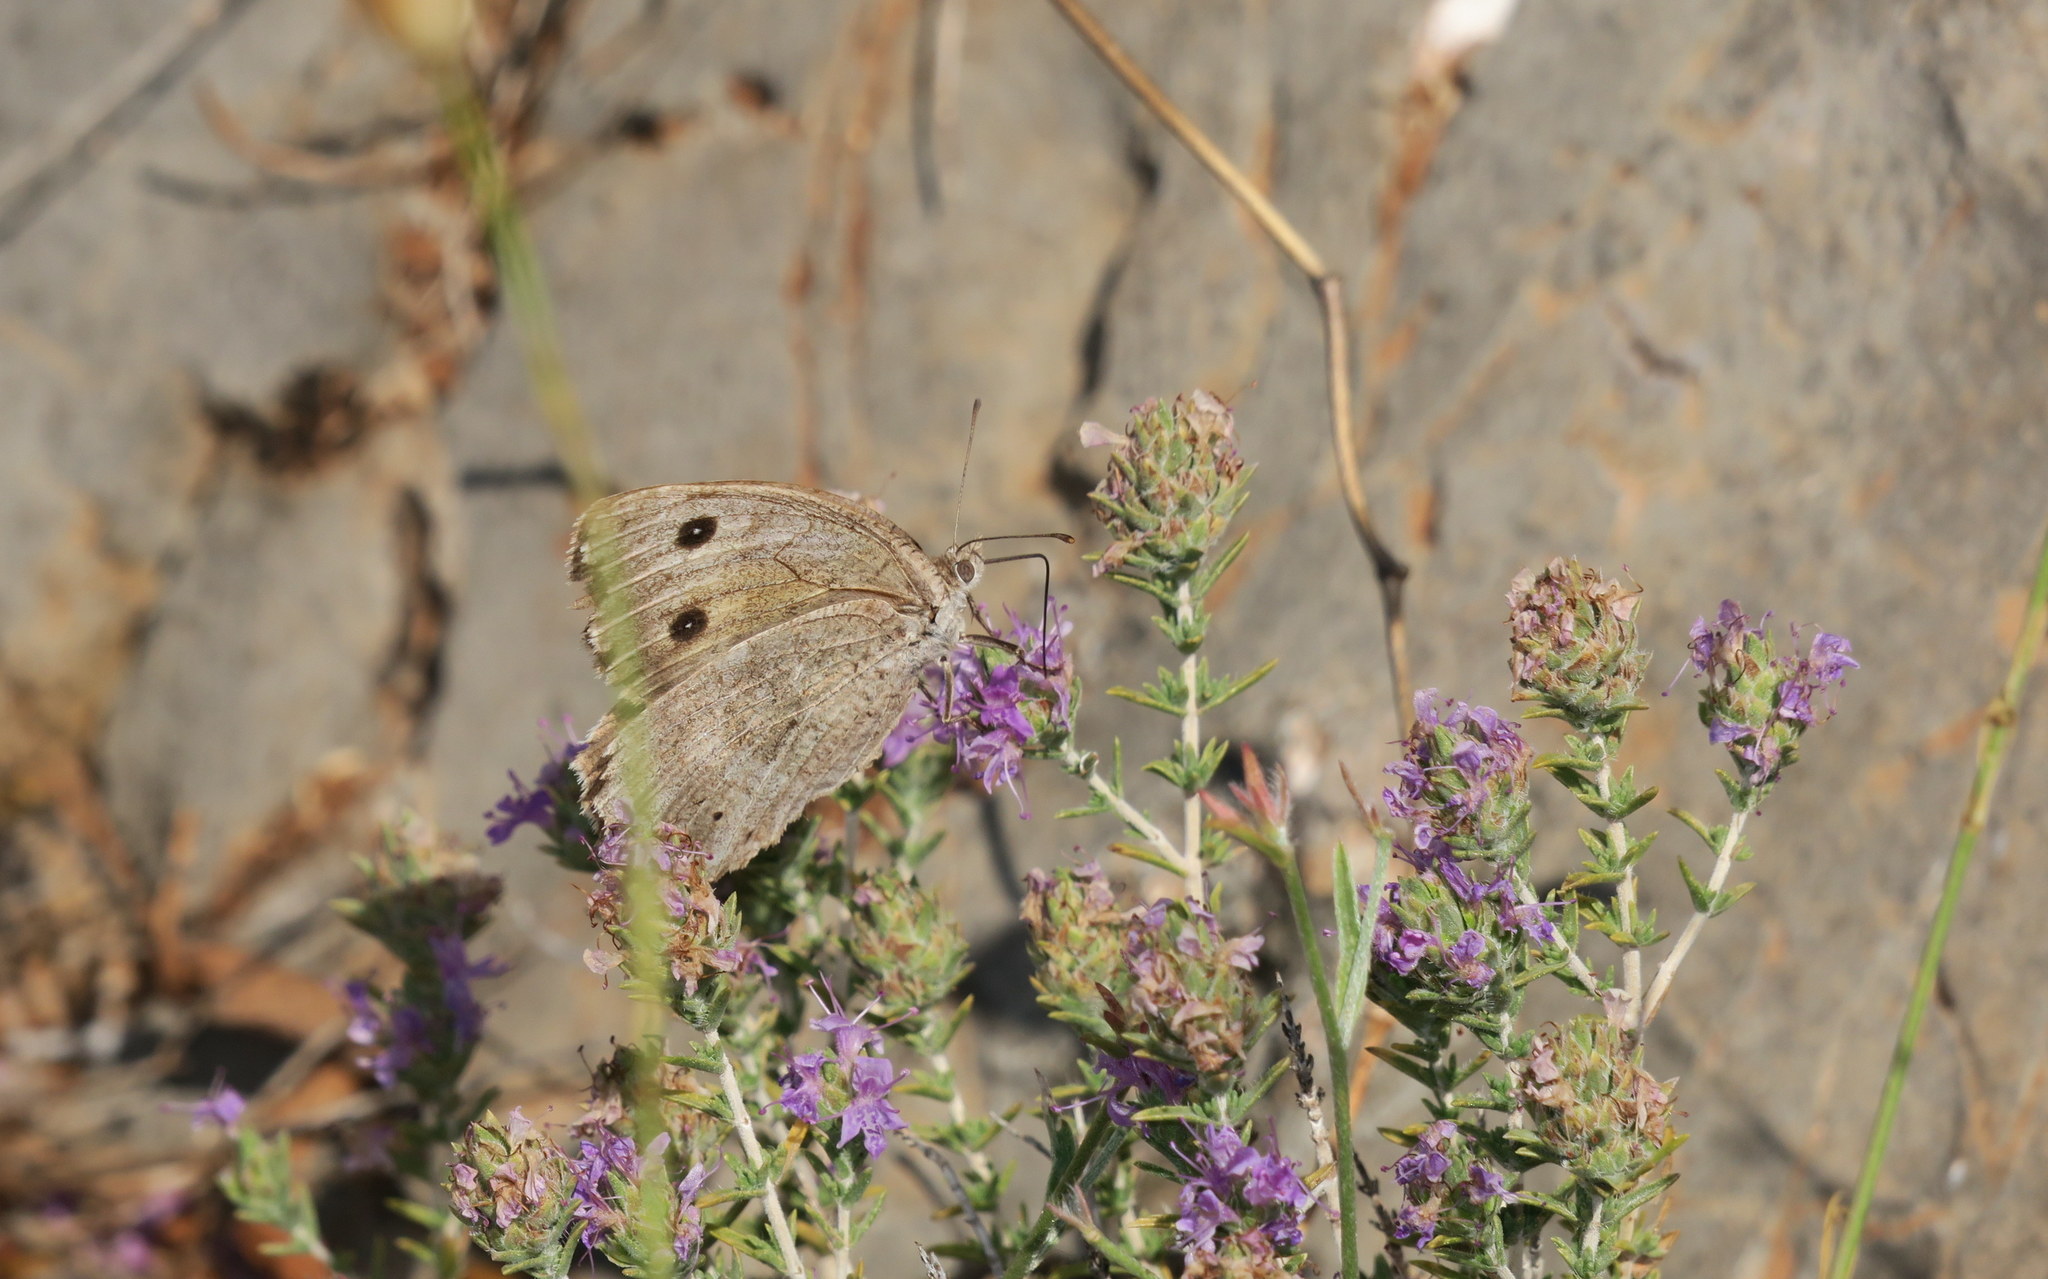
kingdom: Animalia
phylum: Arthropoda
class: Insecta
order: Lepidoptera
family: Nymphalidae
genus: Satyrus
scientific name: Satyrus ferula
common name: Great sooty satyr
